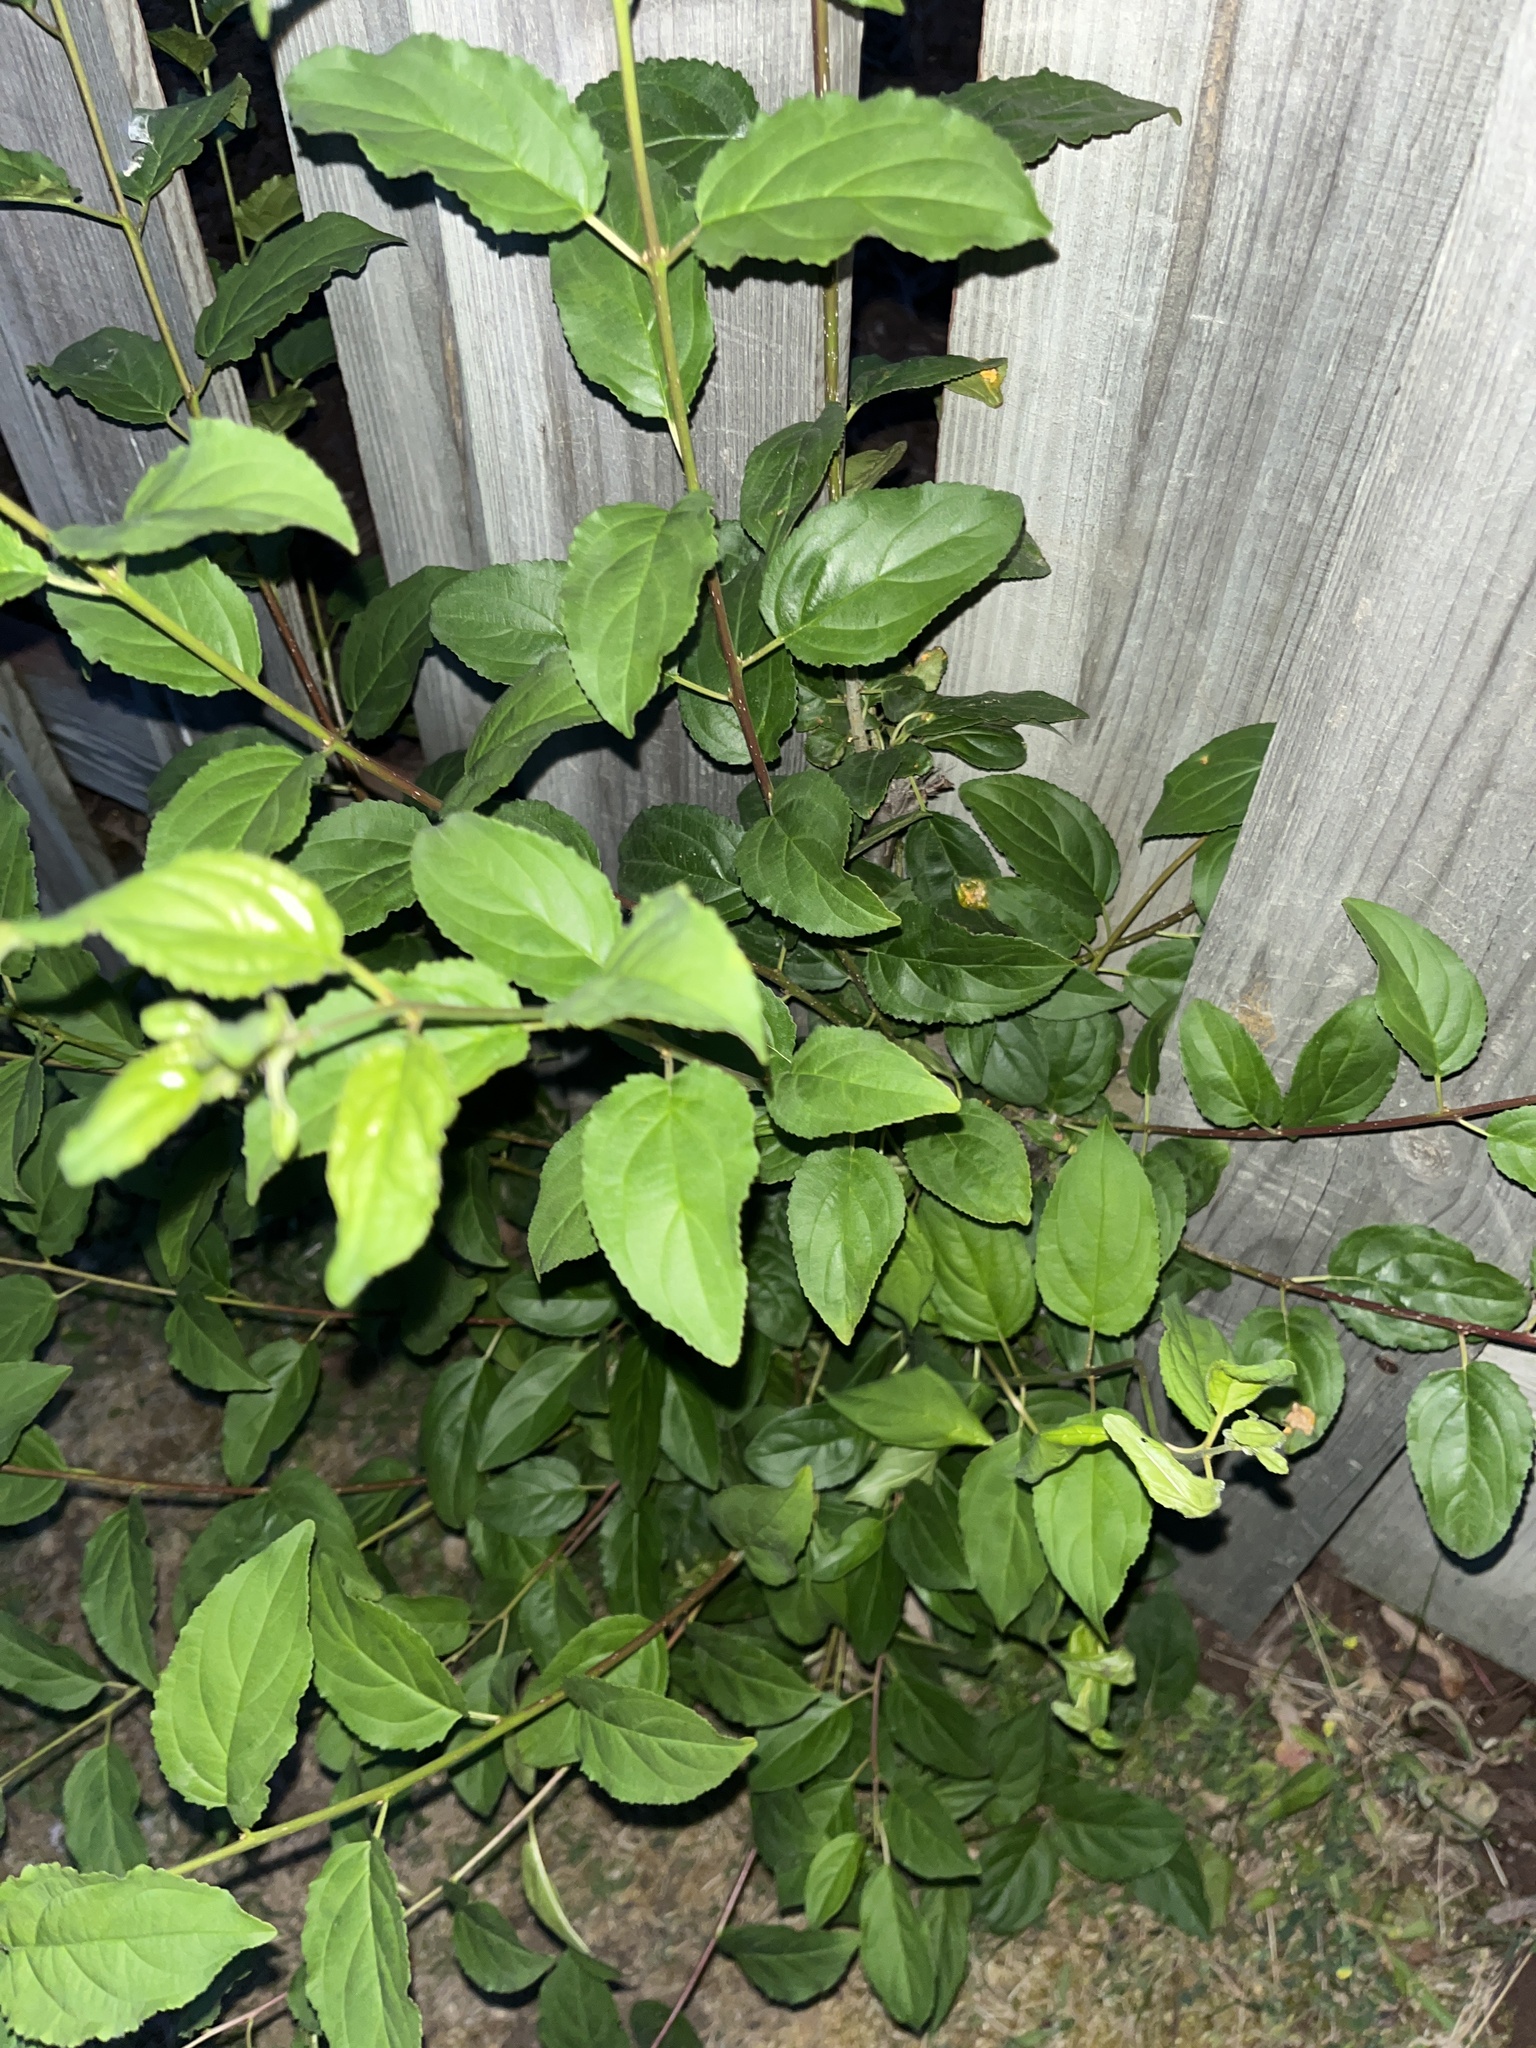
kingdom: Plantae
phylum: Tracheophyta
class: Magnoliopsida
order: Rosales
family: Rhamnaceae
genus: Rhamnus
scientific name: Rhamnus cathartica
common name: Common buckthorn
